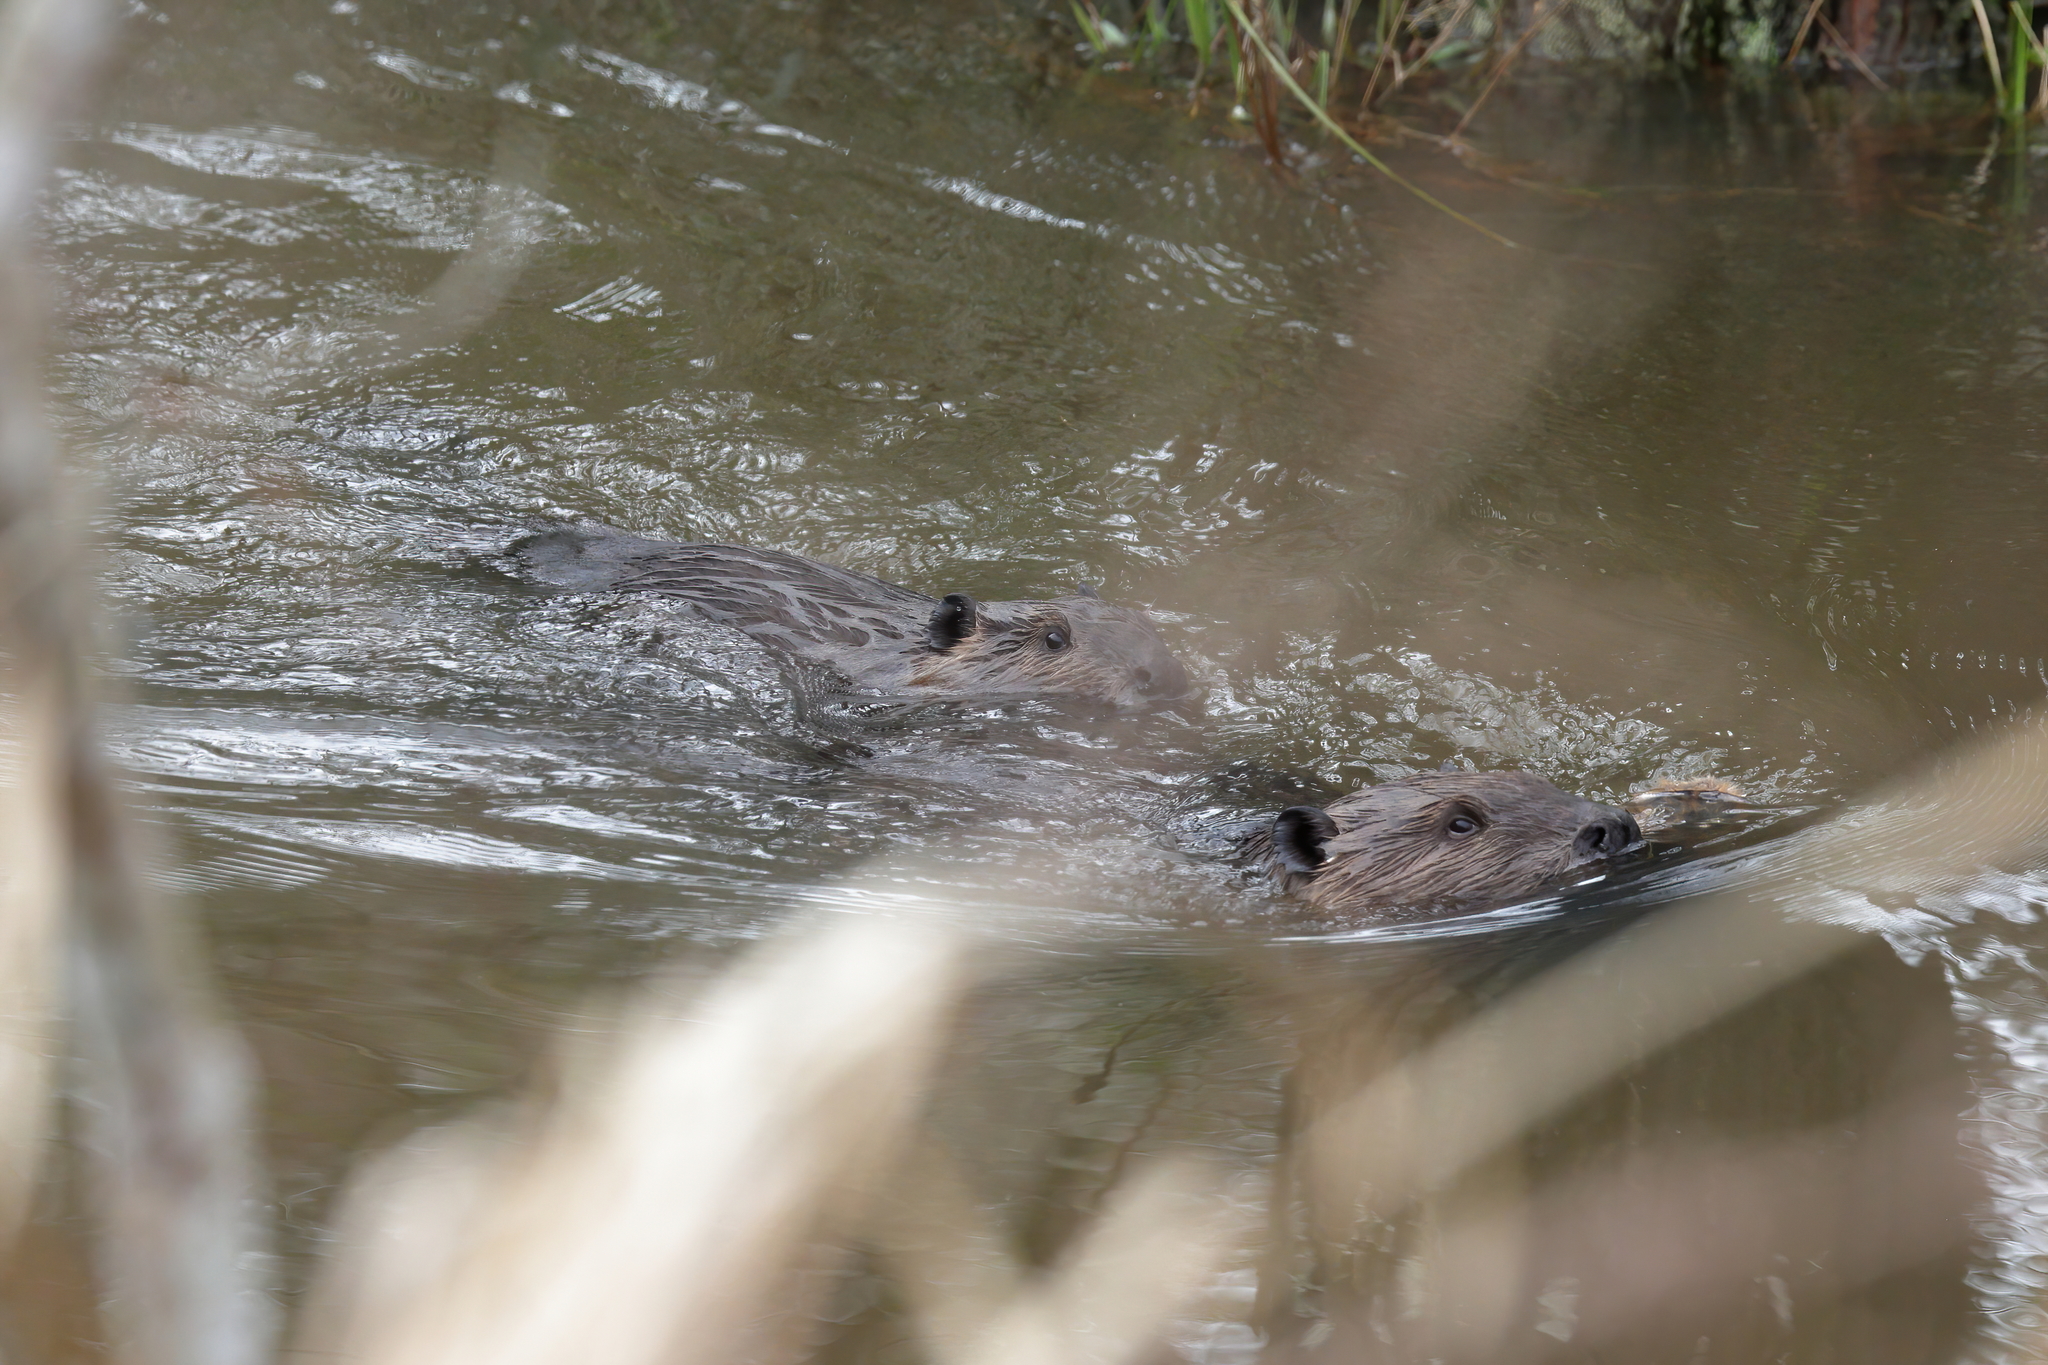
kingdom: Animalia
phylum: Chordata
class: Mammalia
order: Rodentia
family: Castoridae
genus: Castor
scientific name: Castor canadensis
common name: American beaver
